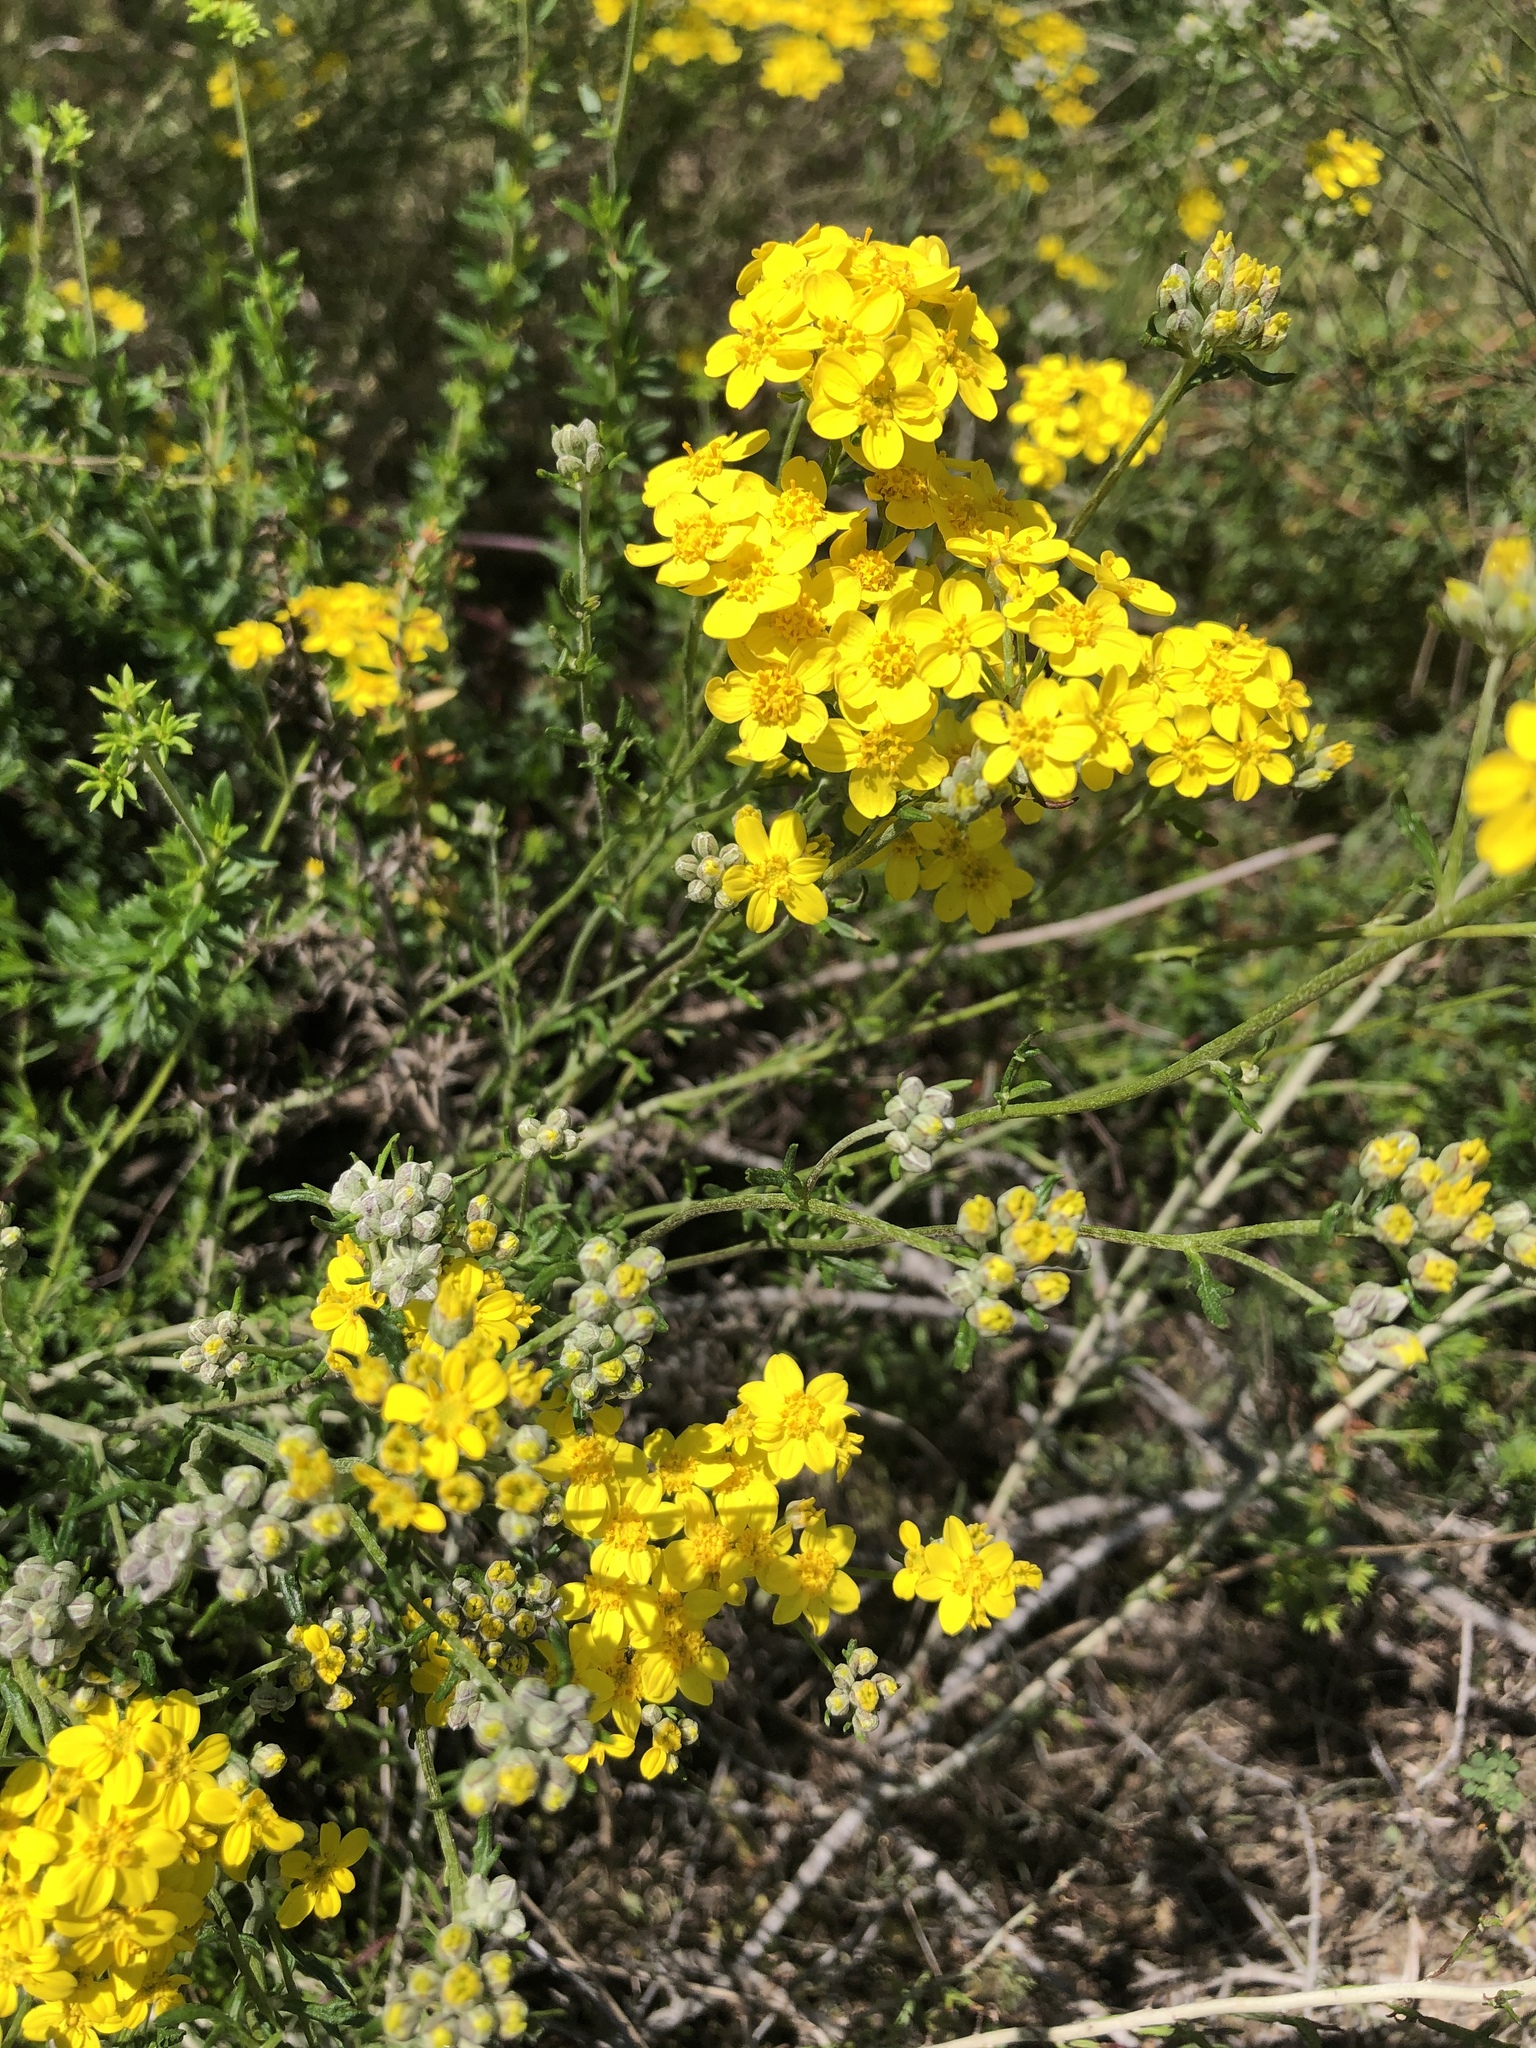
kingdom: Plantae
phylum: Tracheophyta
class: Magnoliopsida
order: Asterales
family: Asteraceae
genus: Eriophyllum
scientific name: Eriophyllum confertiflorum
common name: Golden-yarrow
